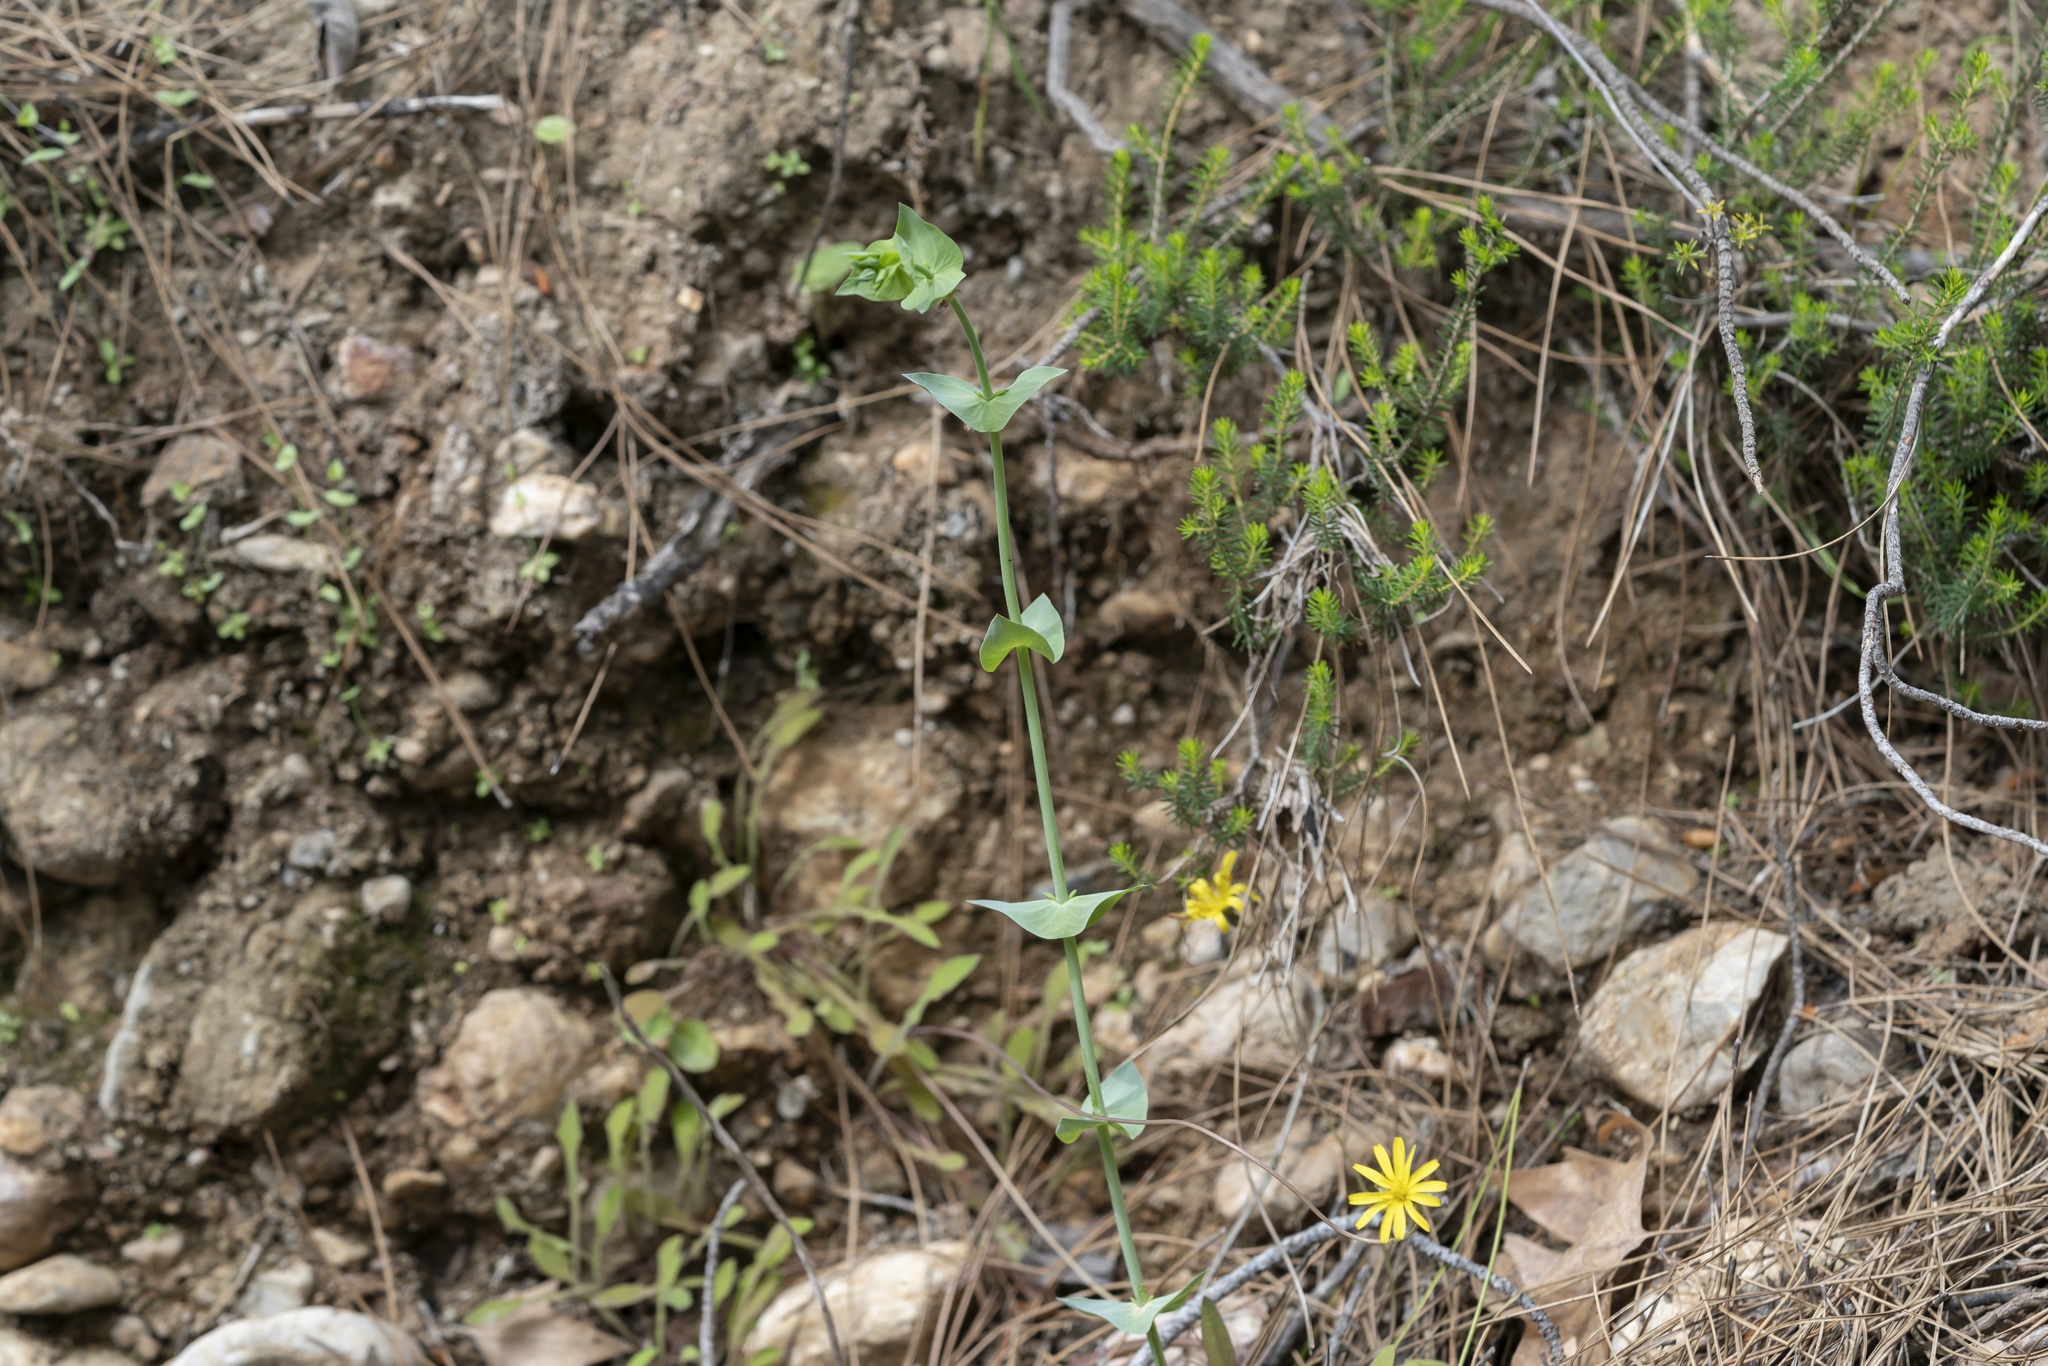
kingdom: Plantae
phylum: Tracheophyta
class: Magnoliopsida
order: Gentianales
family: Gentianaceae
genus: Blackstonia
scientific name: Blackstonia perfoliata
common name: Yellow-wort
